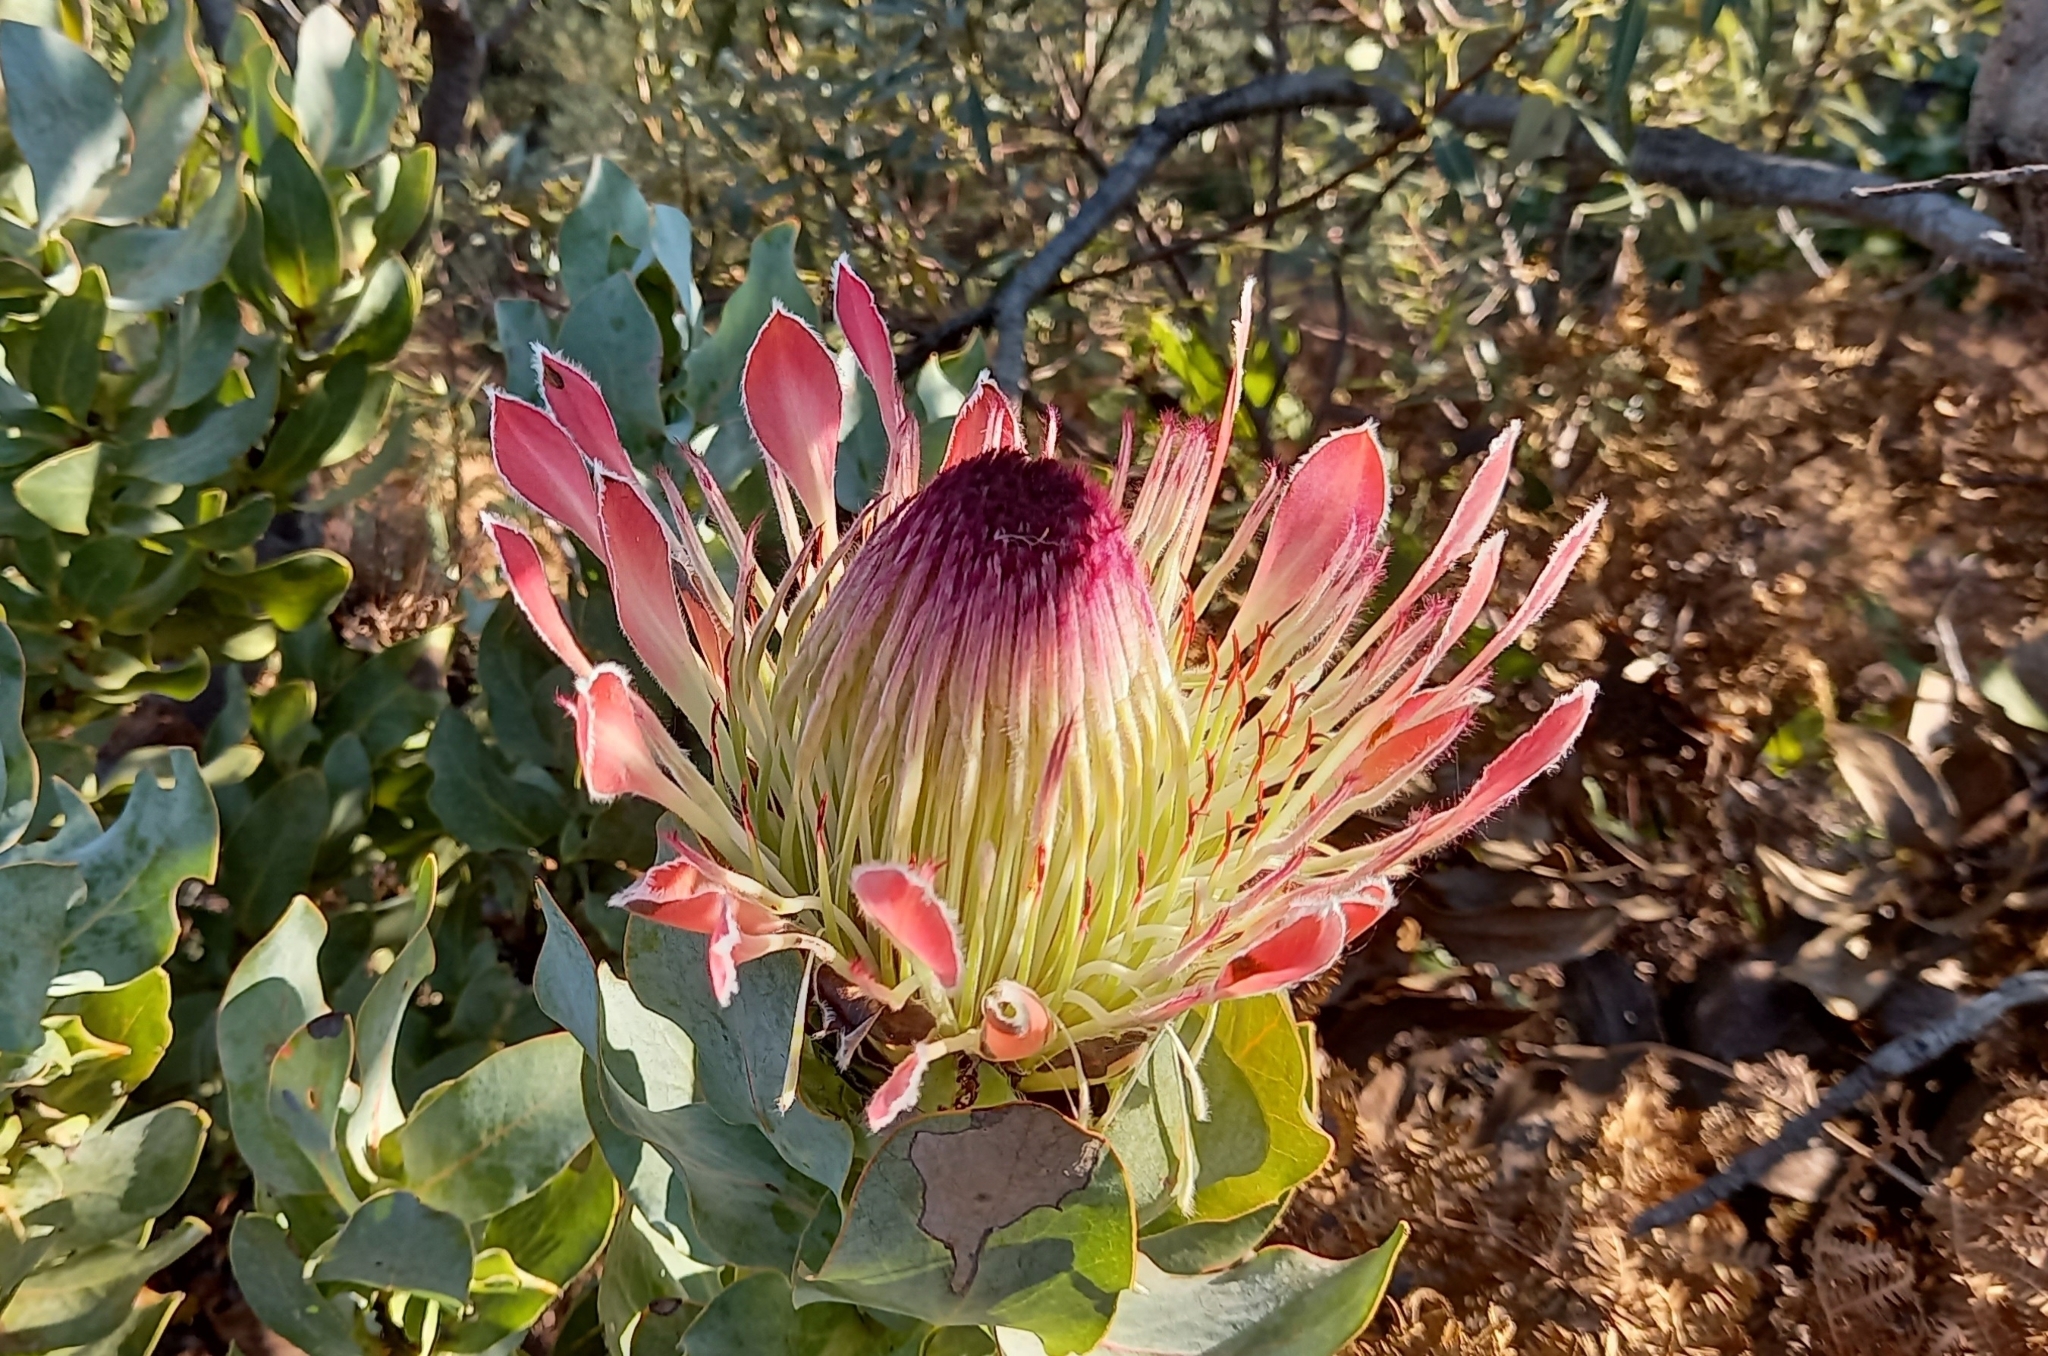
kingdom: Plantae
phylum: Tracheophyta
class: Magnoliopsida
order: Proteales
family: Proteaceae
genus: Protea
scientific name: Protea eximia
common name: Broad-leaved sugarbush
